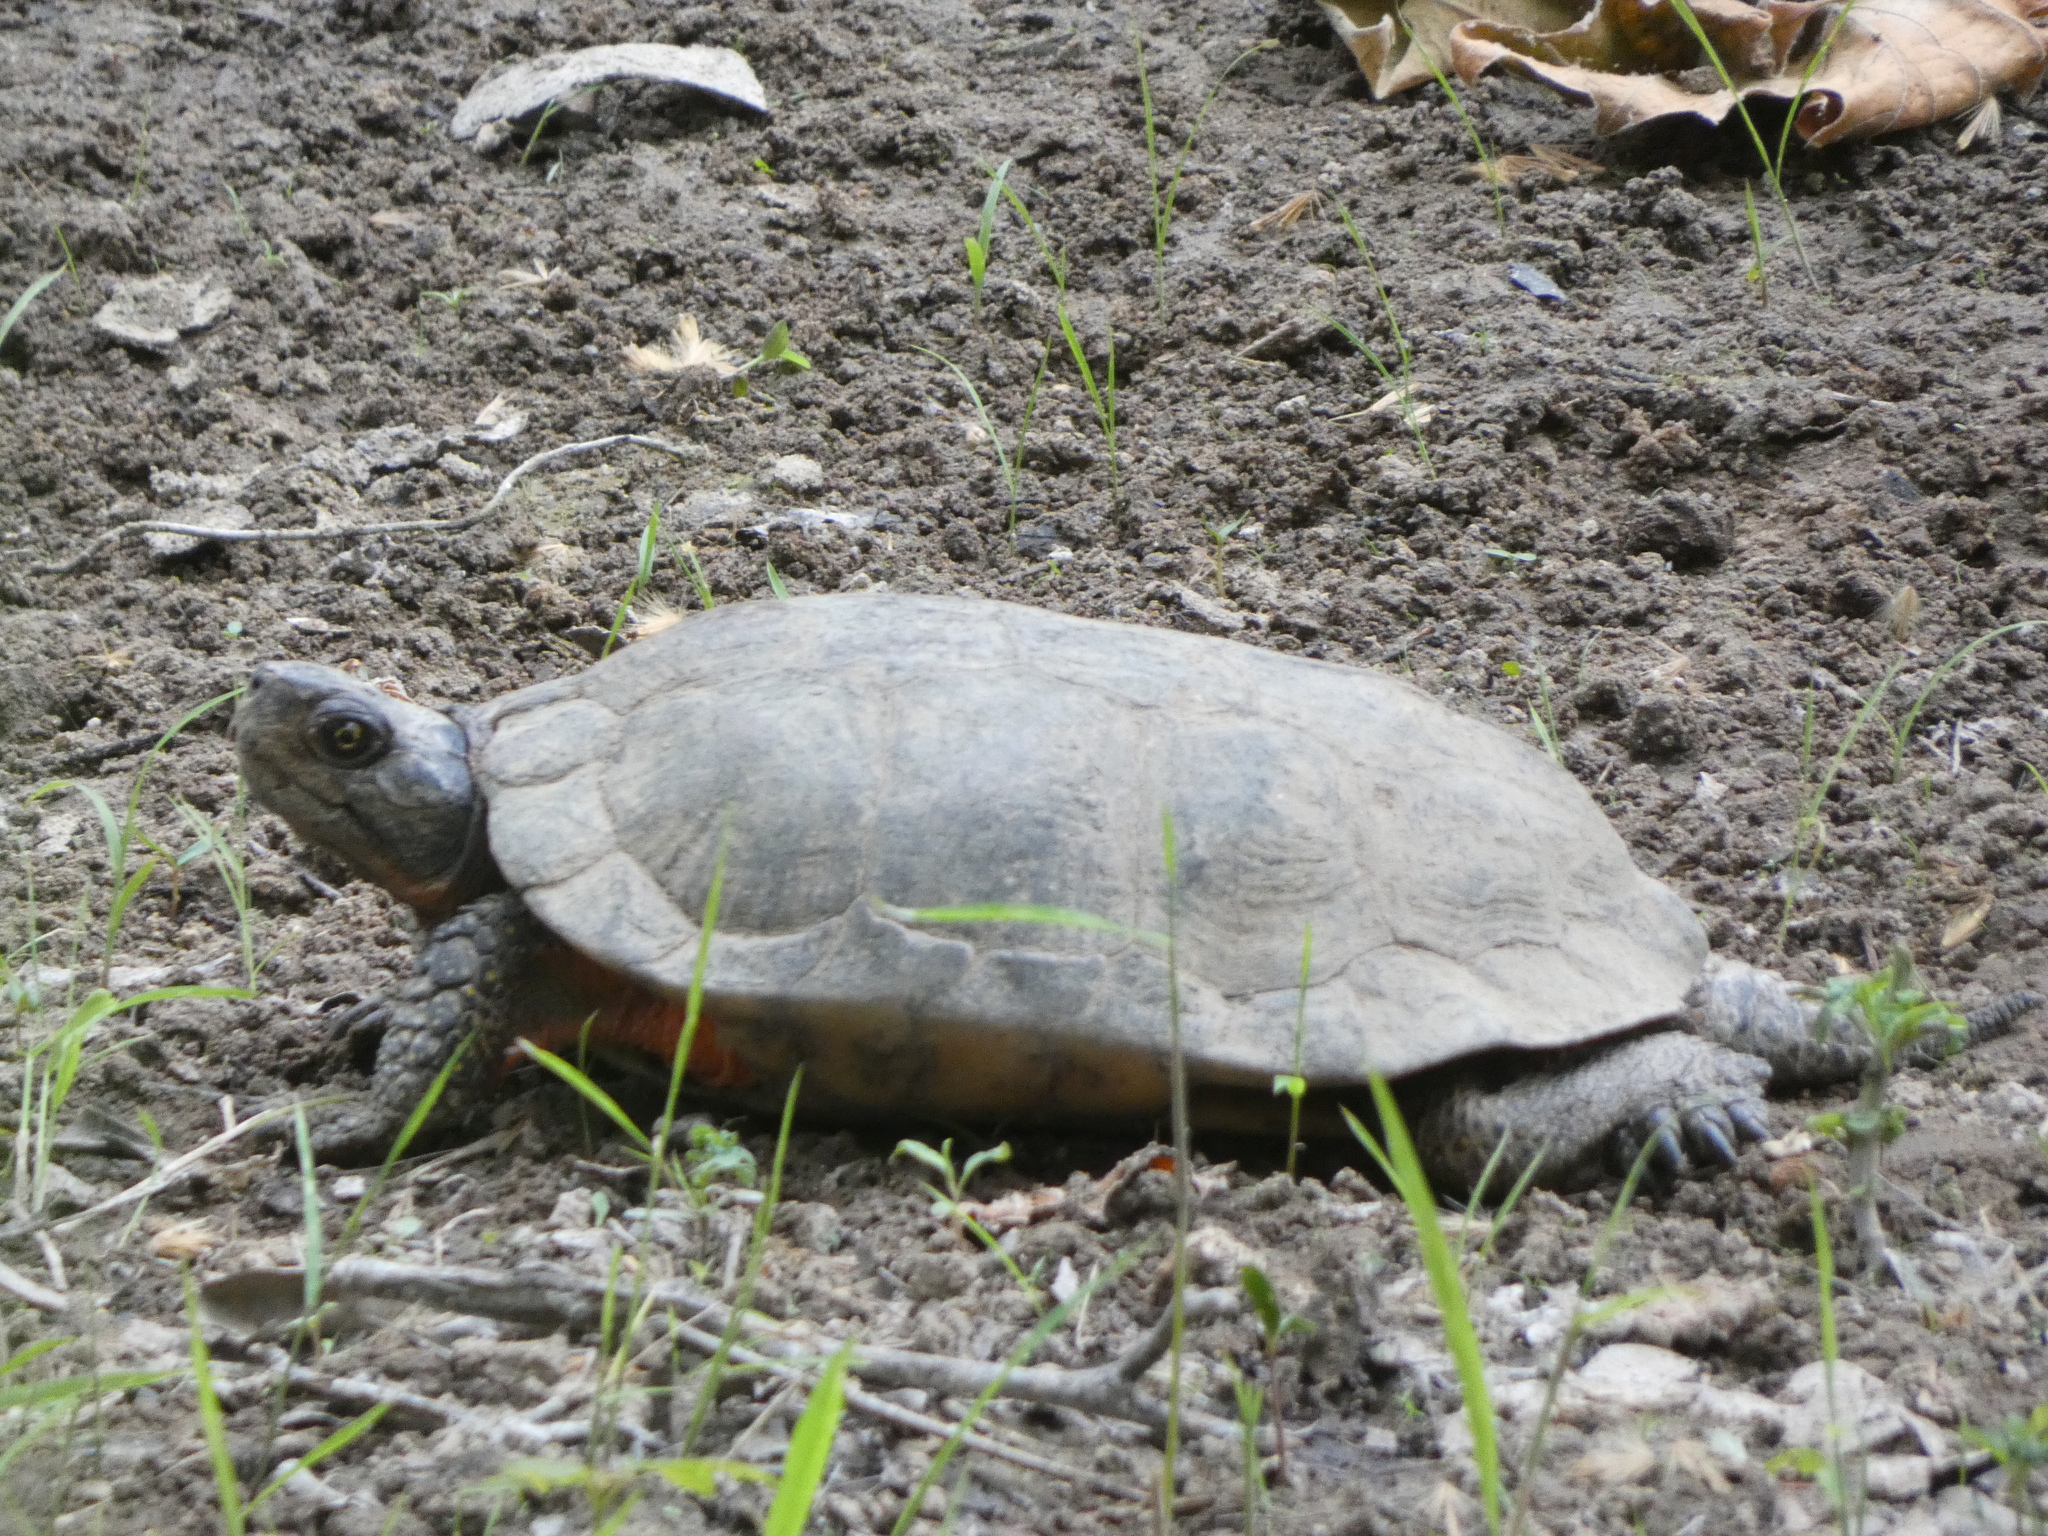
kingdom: Animalia
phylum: Chordata
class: Testudines
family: Emydidae
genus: Glyptemys
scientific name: Glyptemys insculpta
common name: Wood turtle
